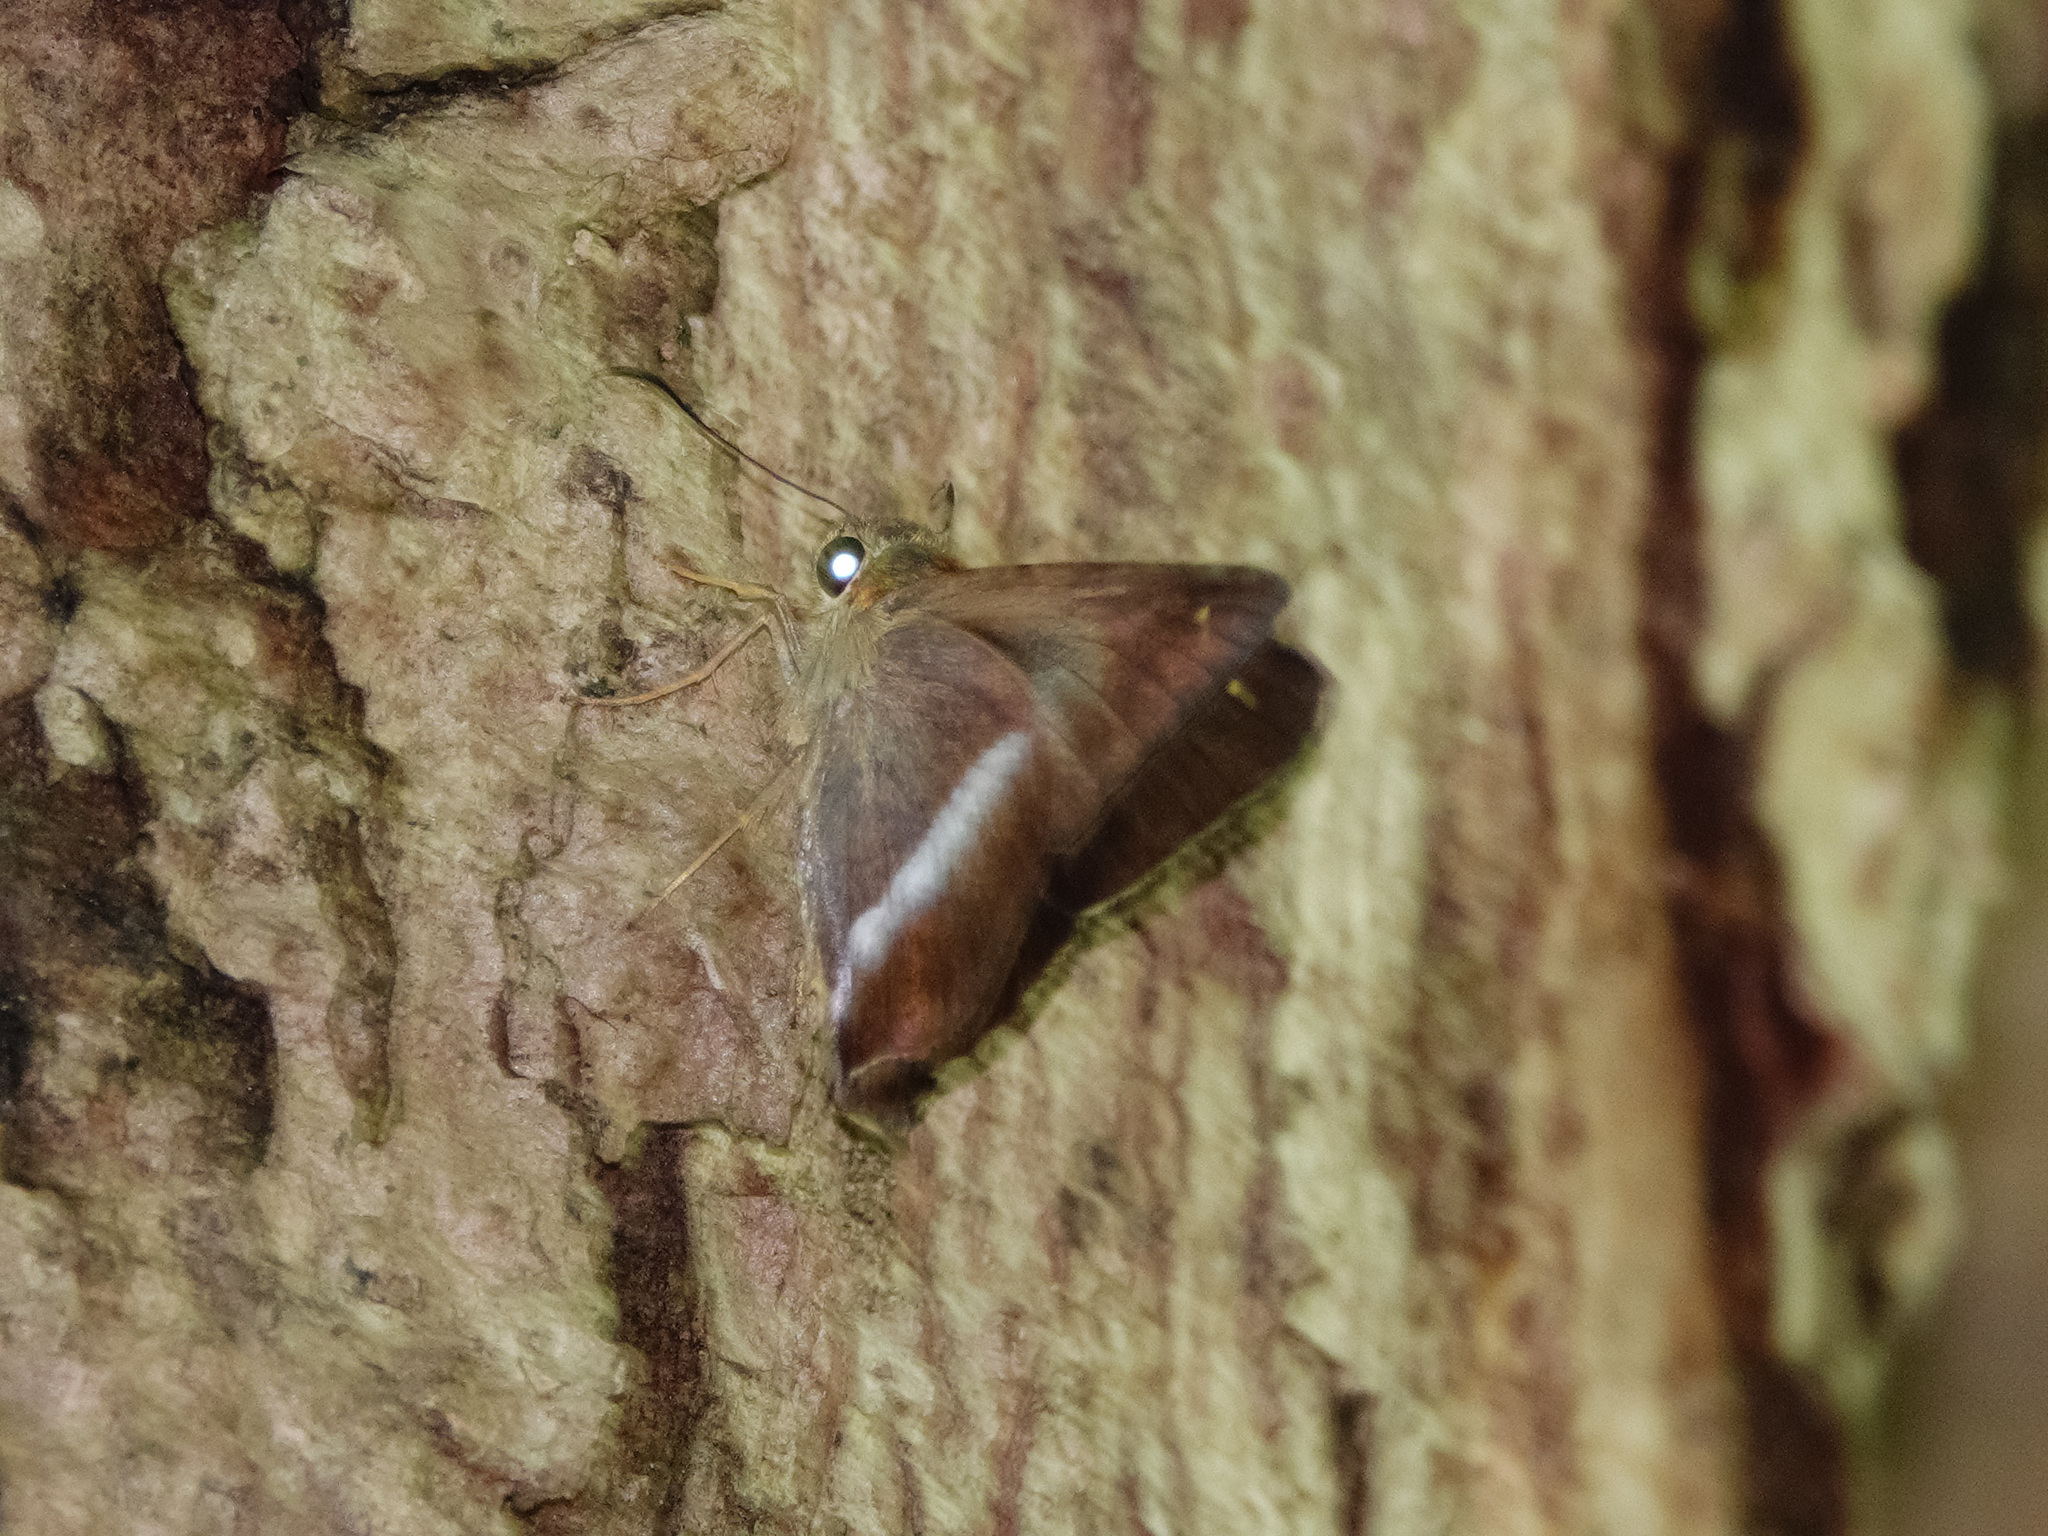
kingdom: Animalia
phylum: Arthropoda
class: Insecta
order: Lepidoptera
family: Hesperiidae
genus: Hasora
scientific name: Hasora vitta
